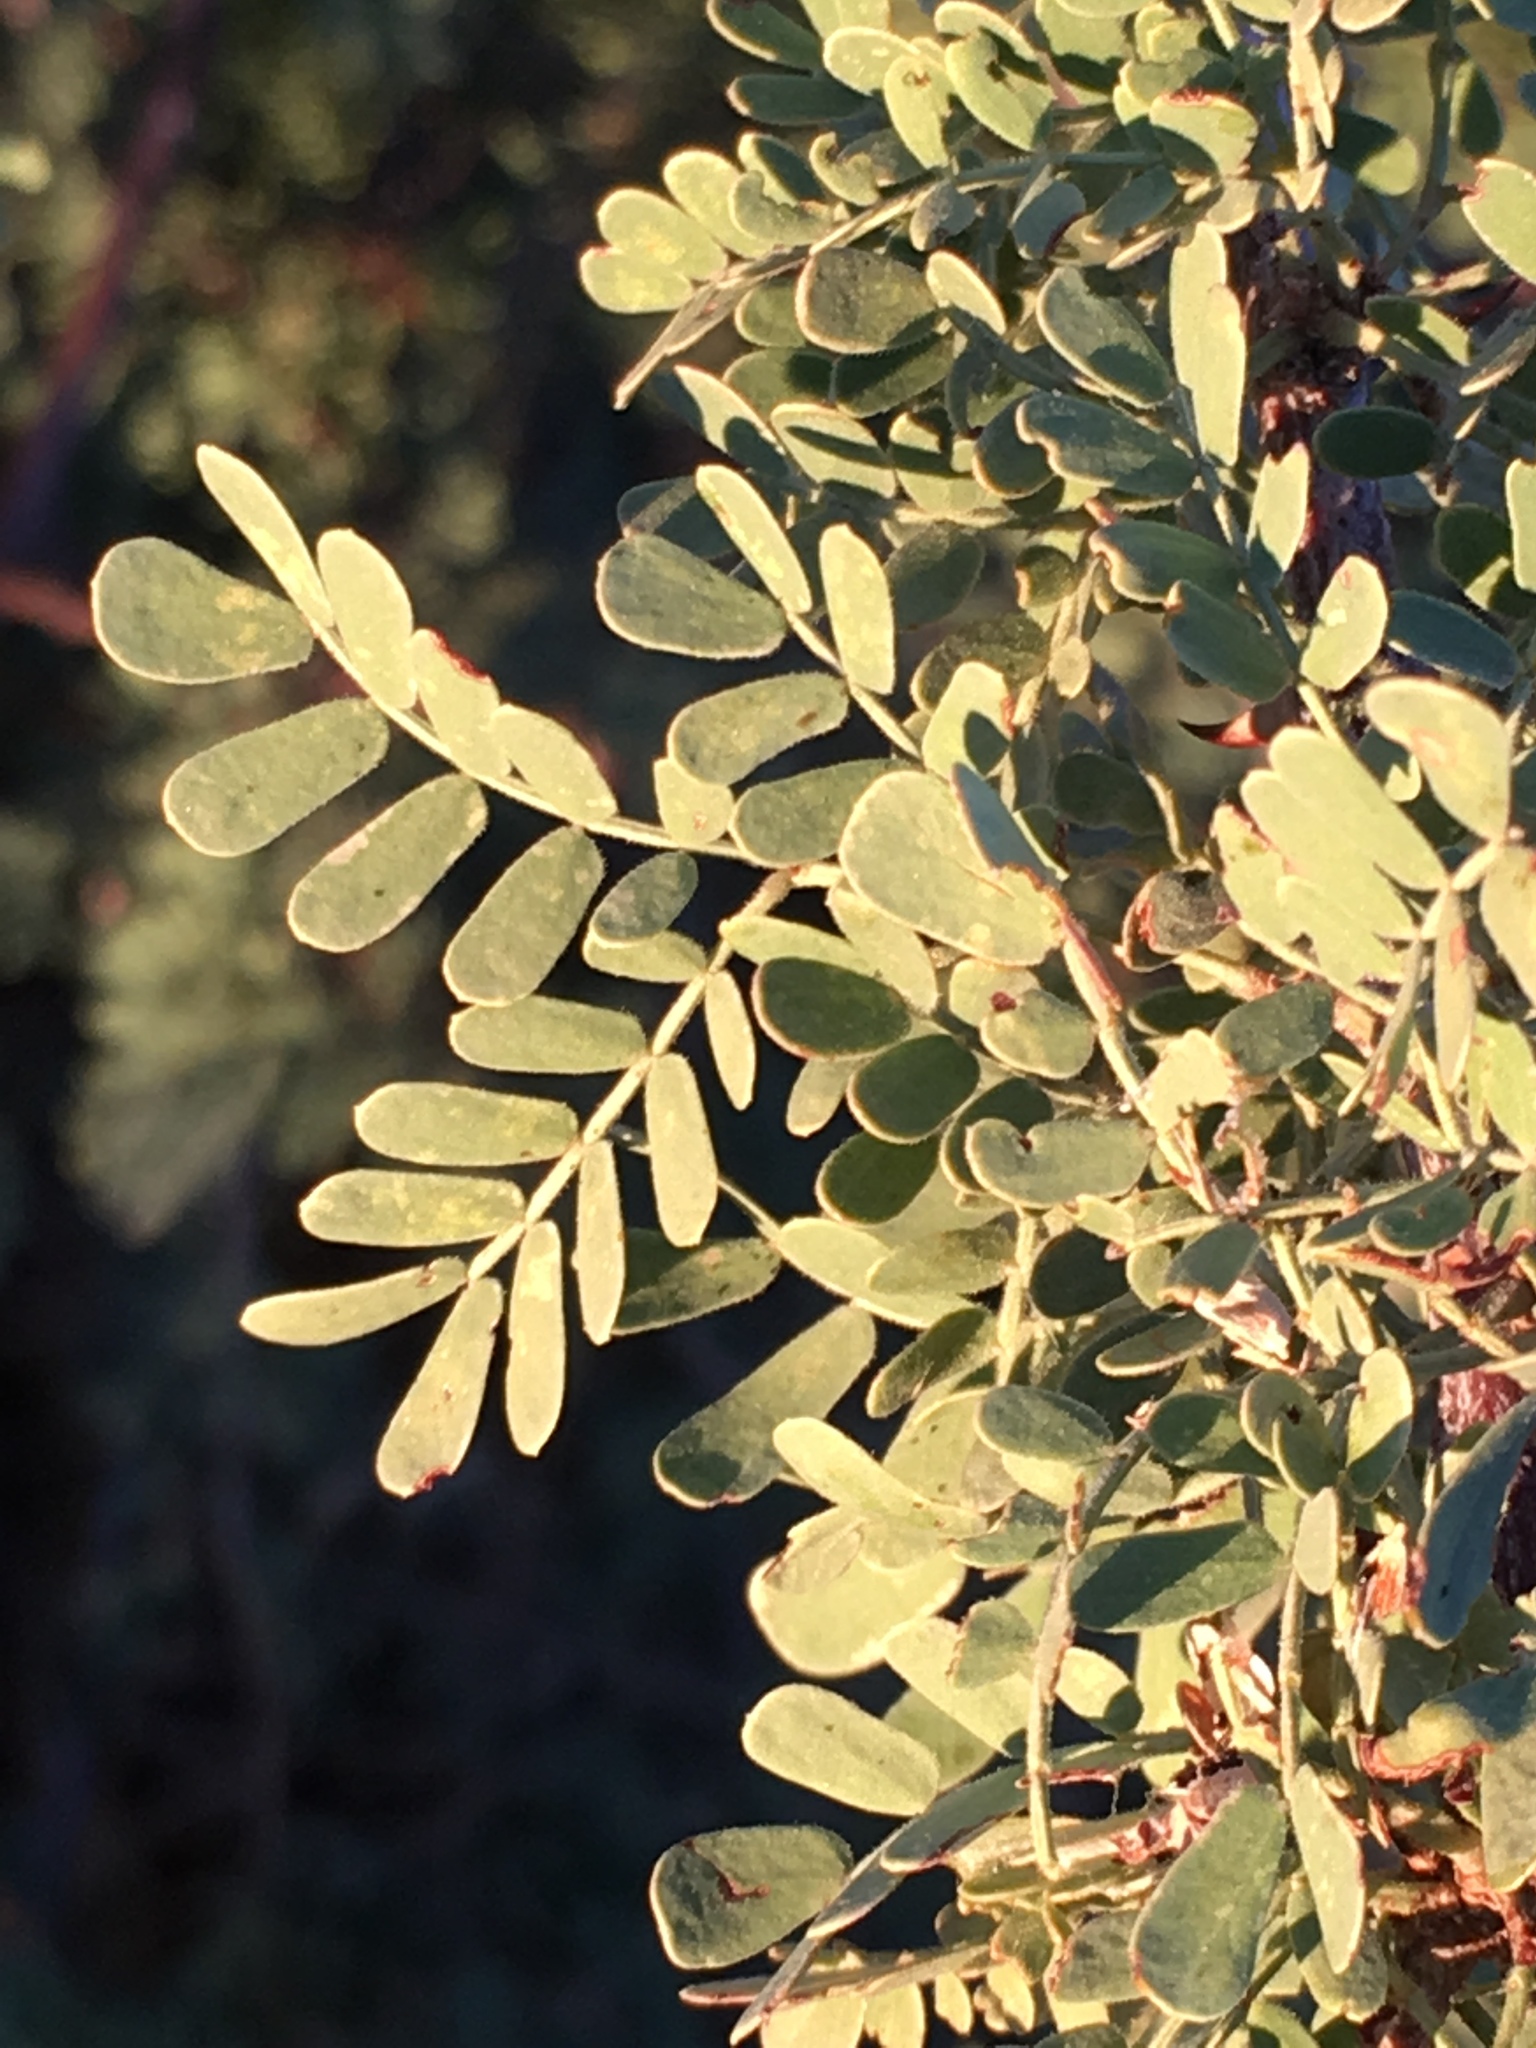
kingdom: Plantae
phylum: Tracheophyta
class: Magnoliopsida
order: Fabales
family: Fabaceae
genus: Senegalia
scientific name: Senegalia greggii
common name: Texas-mimosa
